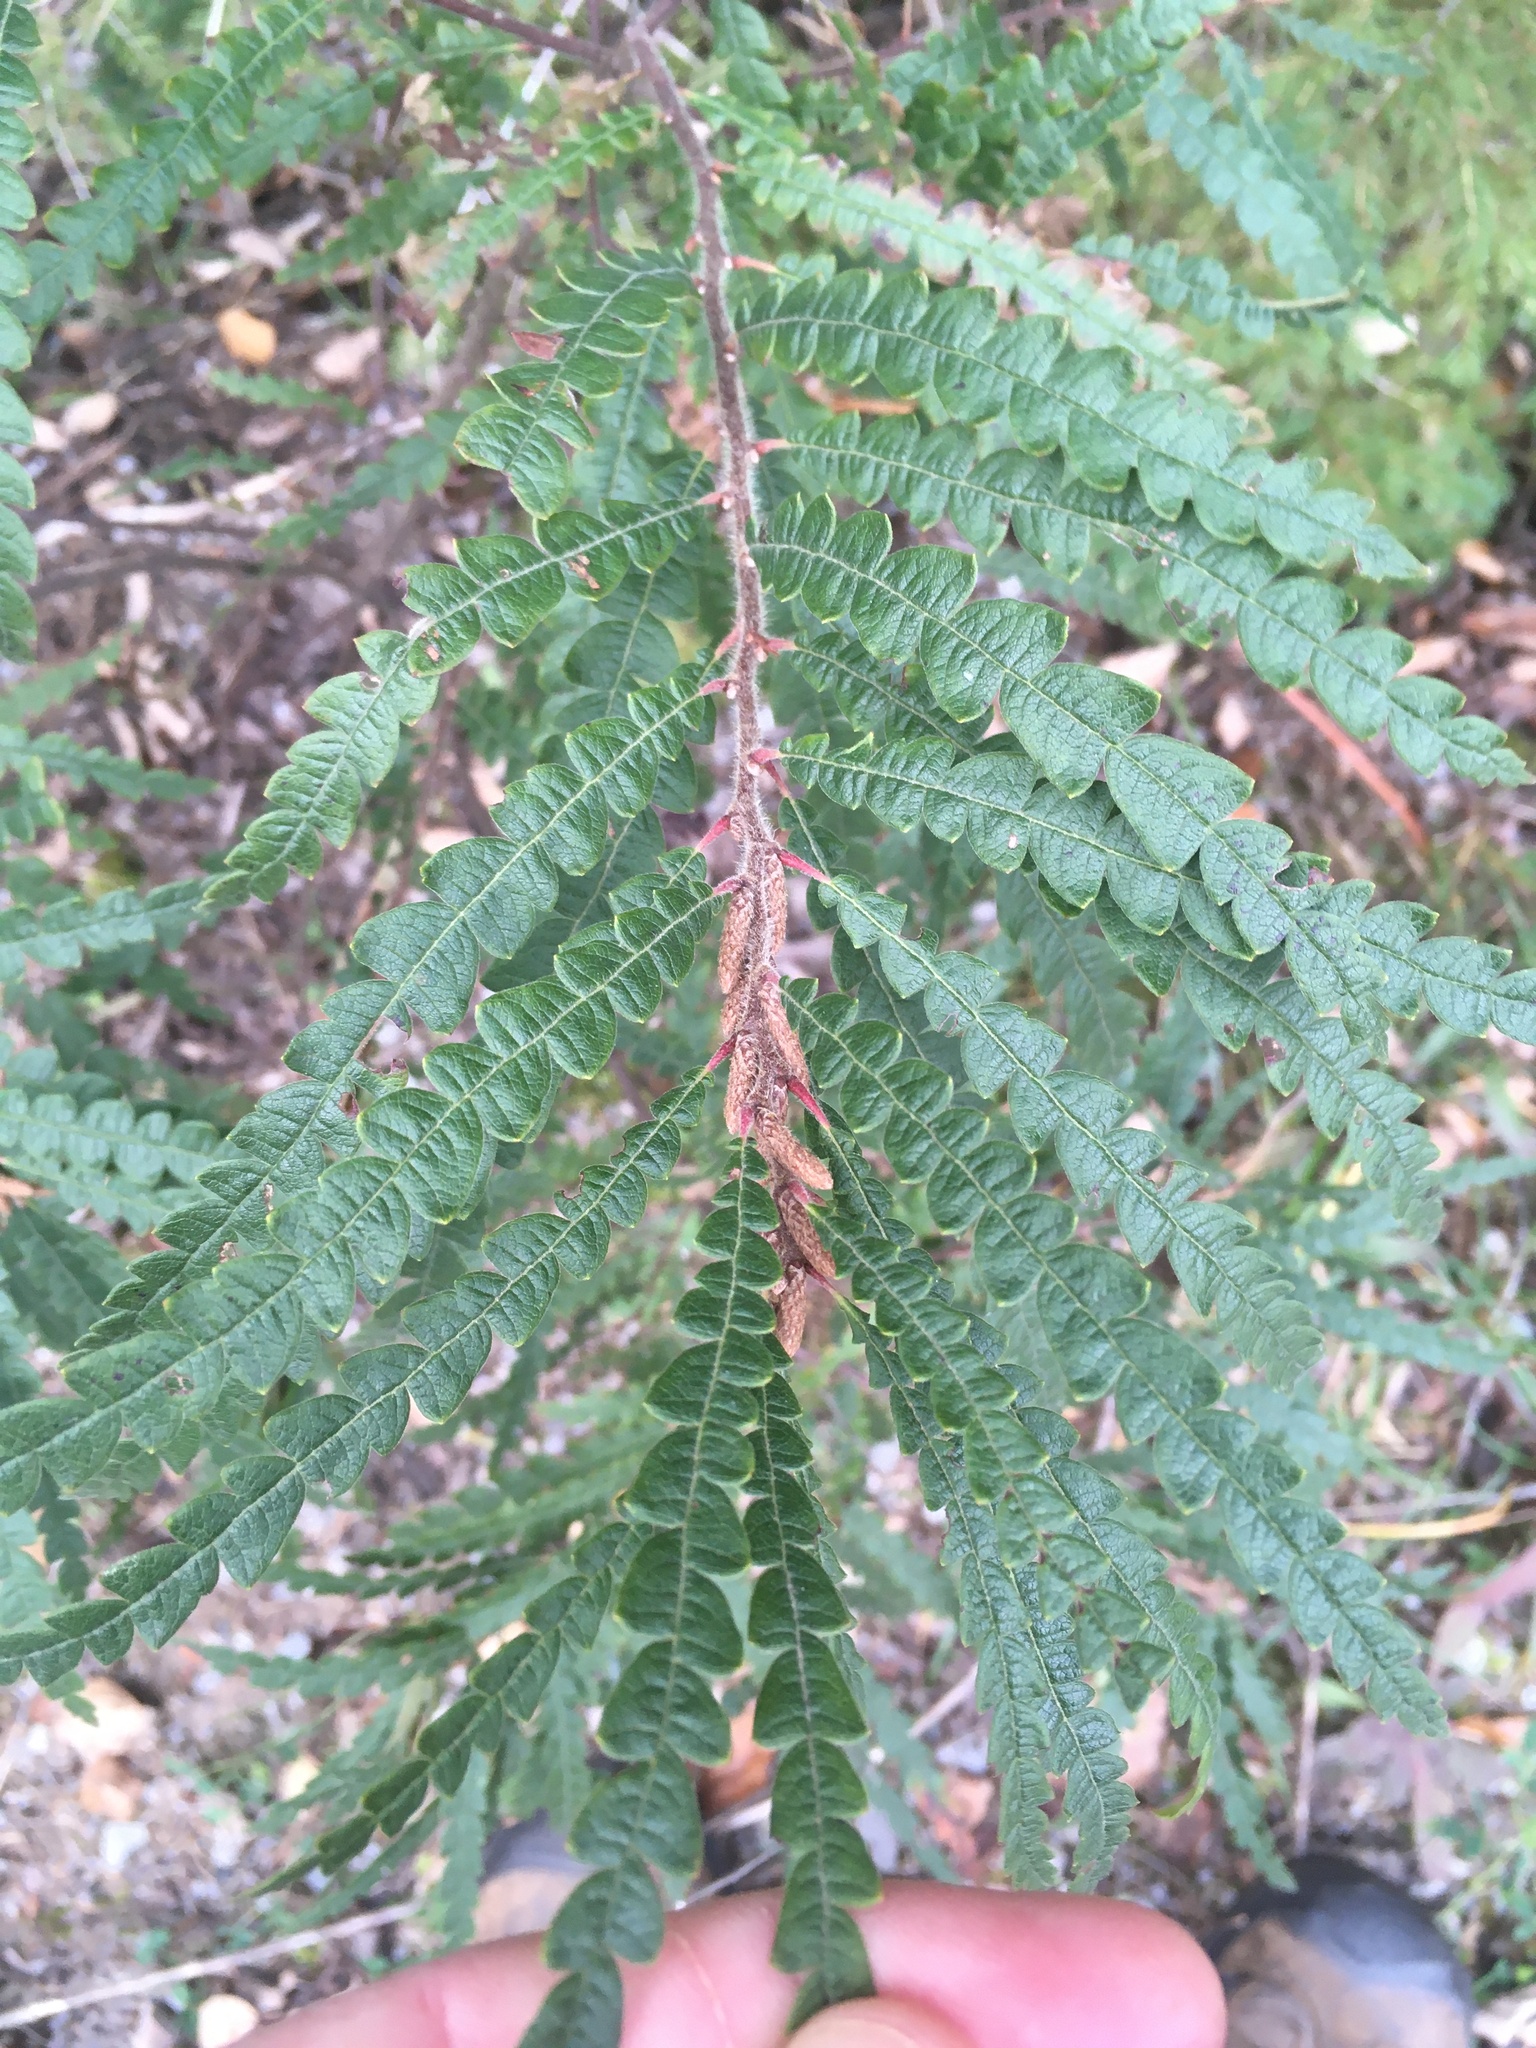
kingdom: Plantae
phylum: Tracheophyta
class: Magnoliopsida
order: Fagales
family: Myricaceae
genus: Comptonia
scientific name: Comptonia peregrina
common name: Sweet-fern
